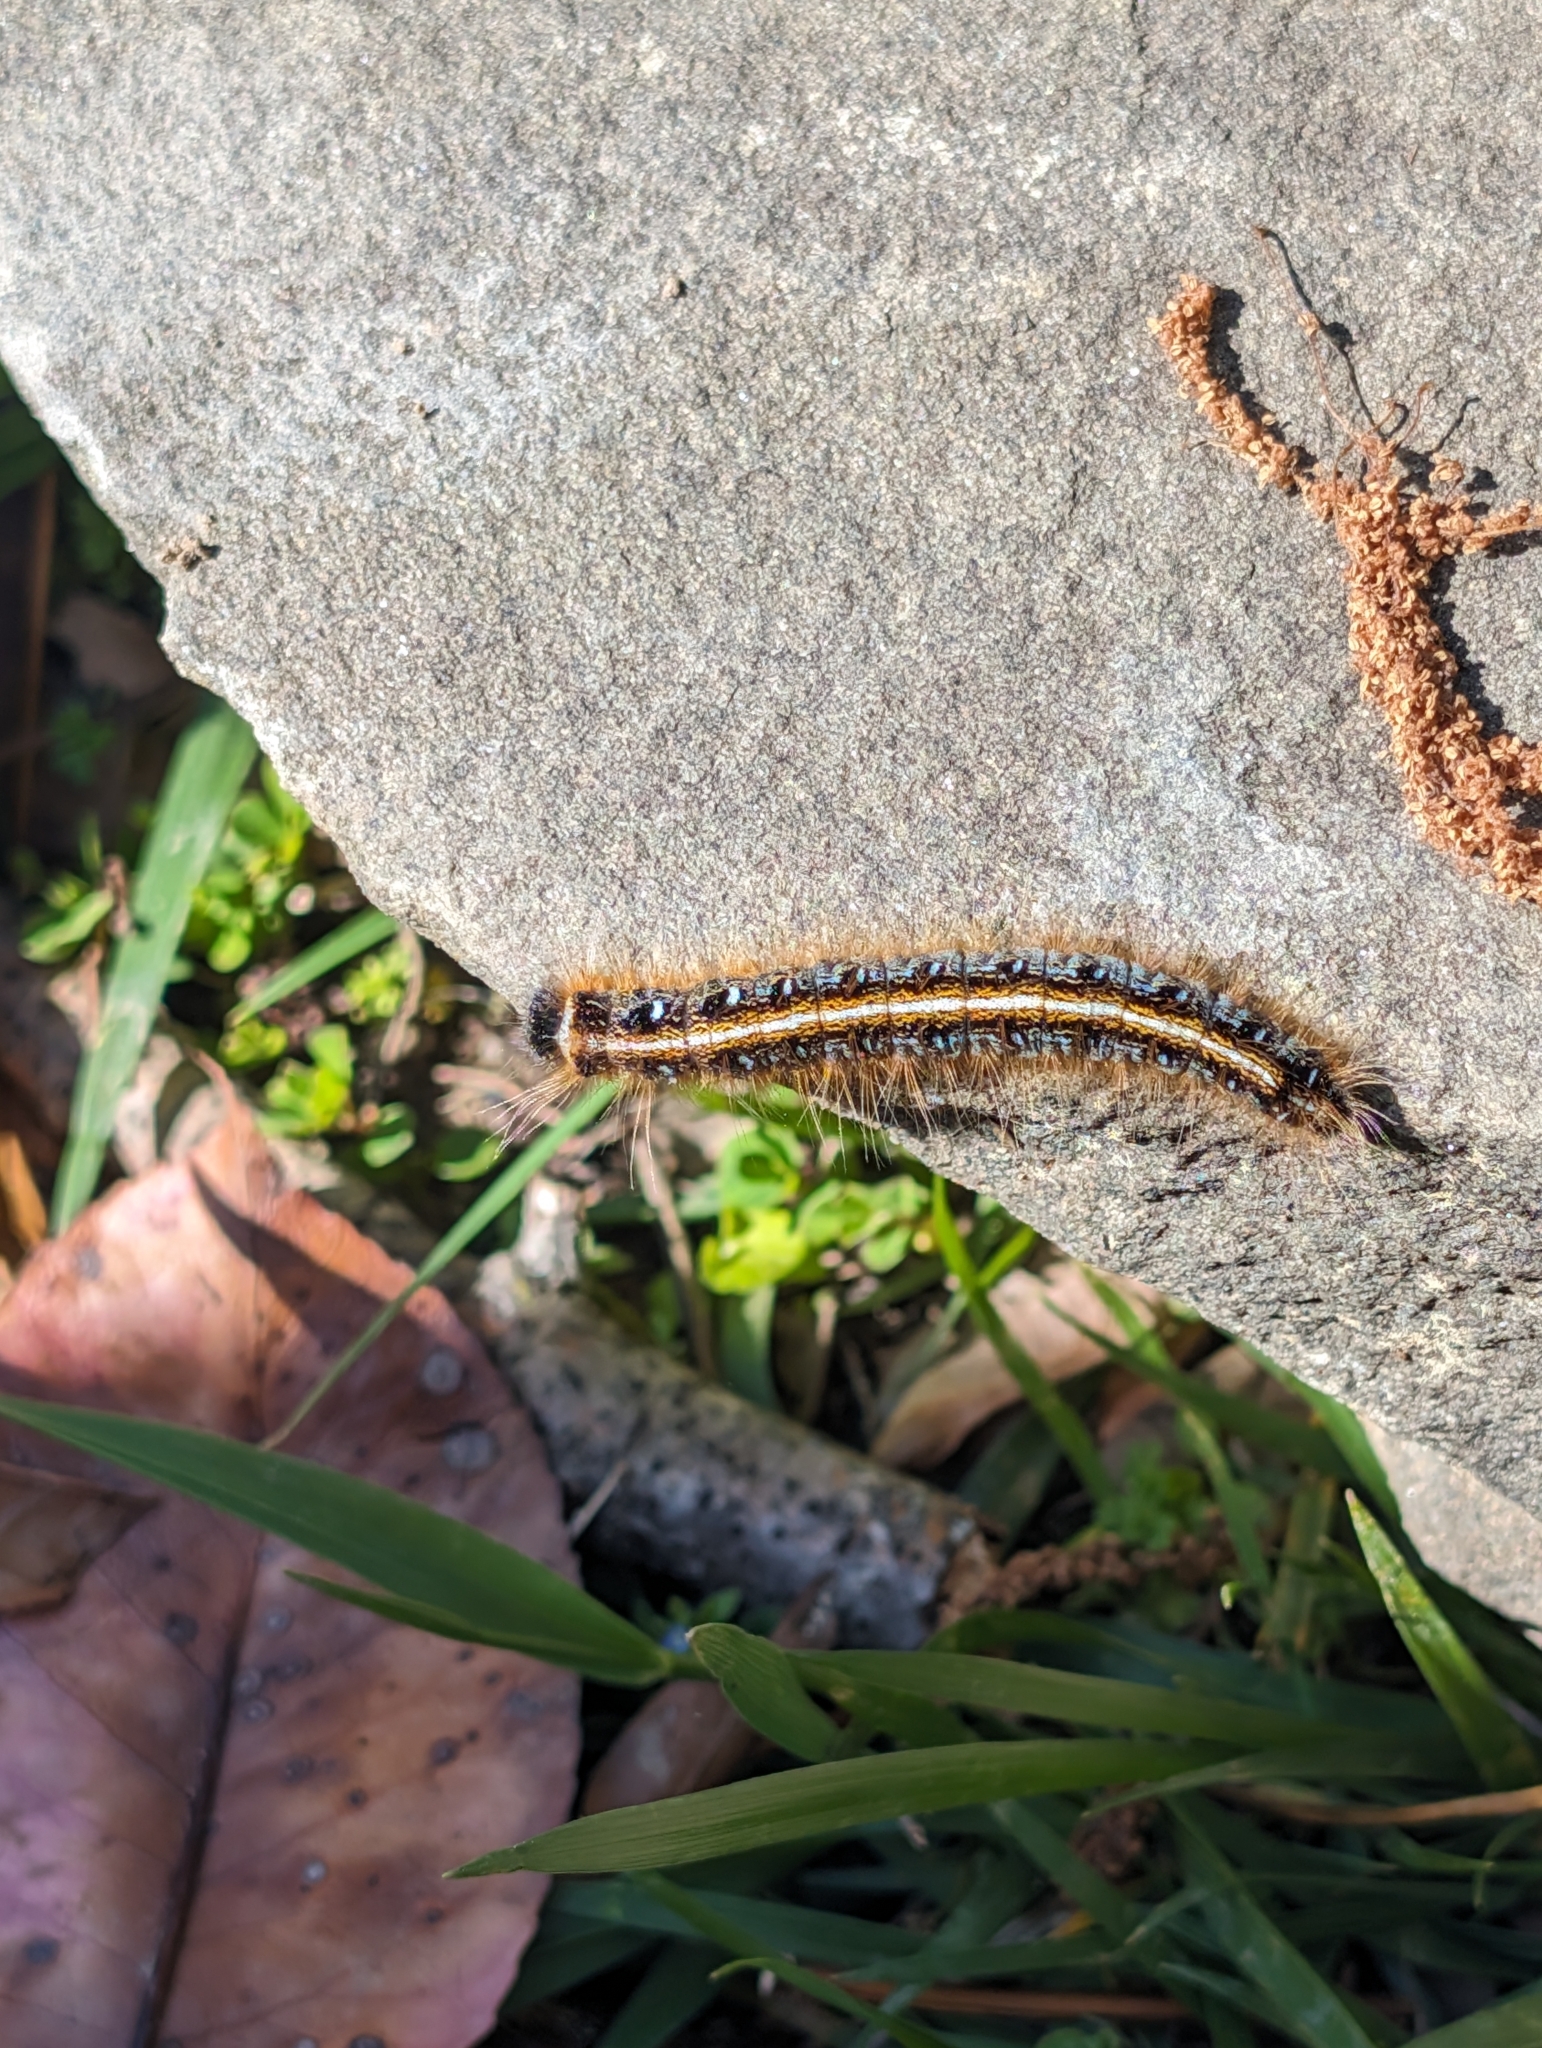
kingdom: Animalia
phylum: Arthropoda
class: Insecta
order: Lepidoptera
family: Lasiocampidae
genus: Malacosoma
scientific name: Malacosoma americana
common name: Eastern tent caterpillar moth
